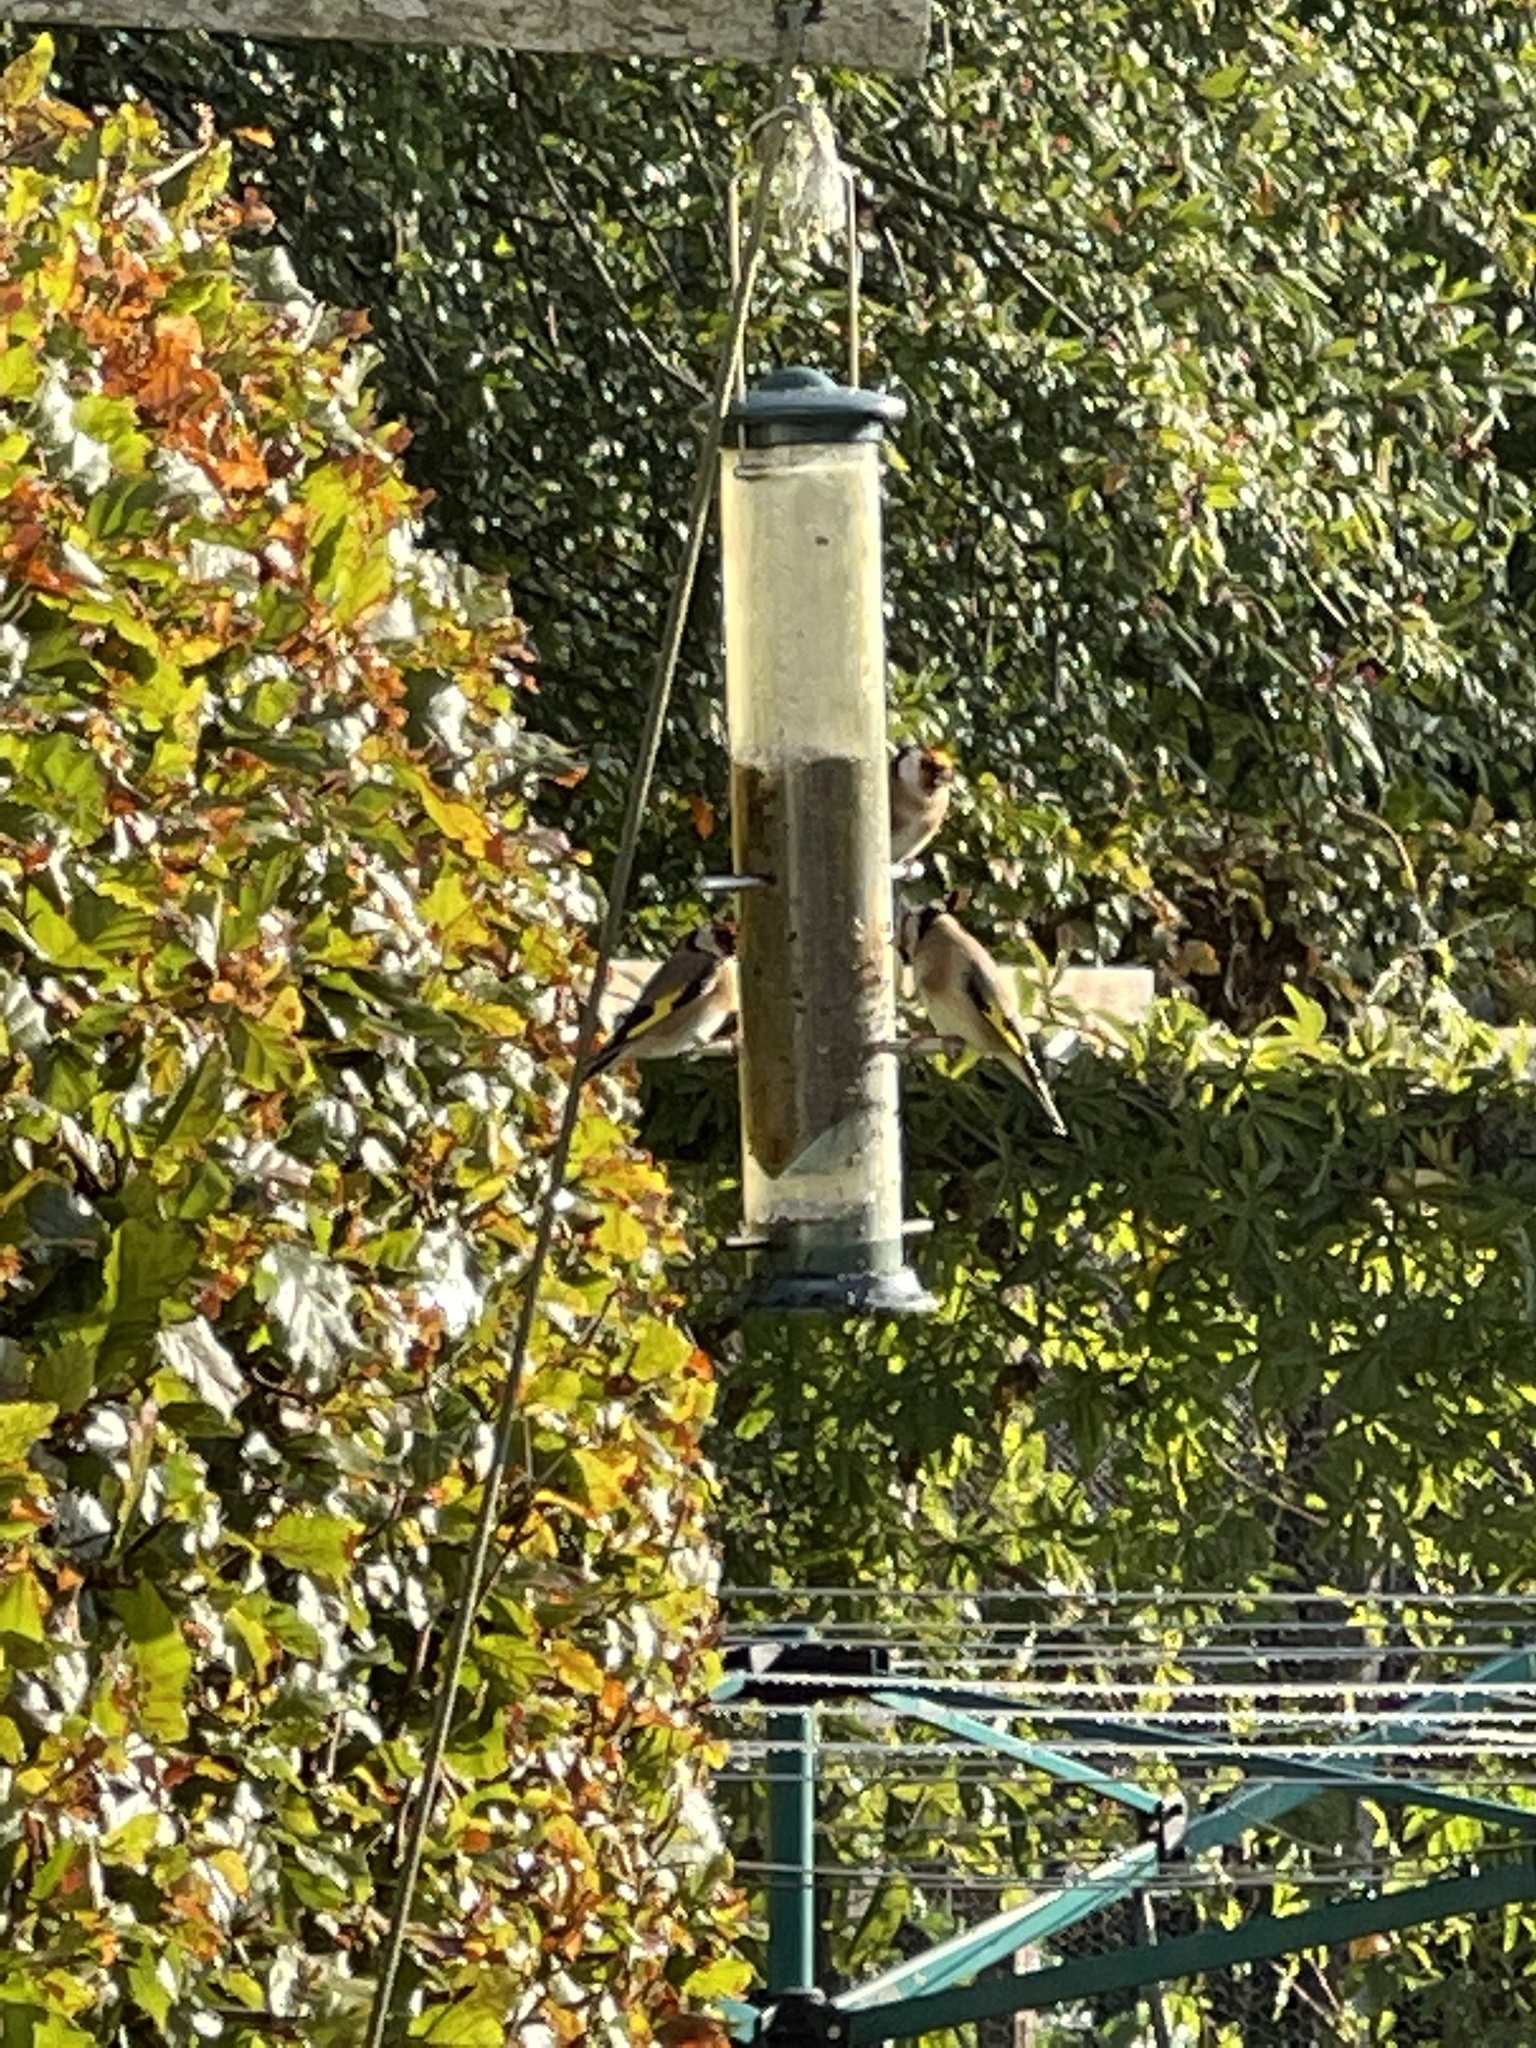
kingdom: Animalia
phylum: Chordata
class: Aves
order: Passeriformes
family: Fringillidae
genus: Carduelis
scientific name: Carduelis carduelis
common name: European goldfinch
